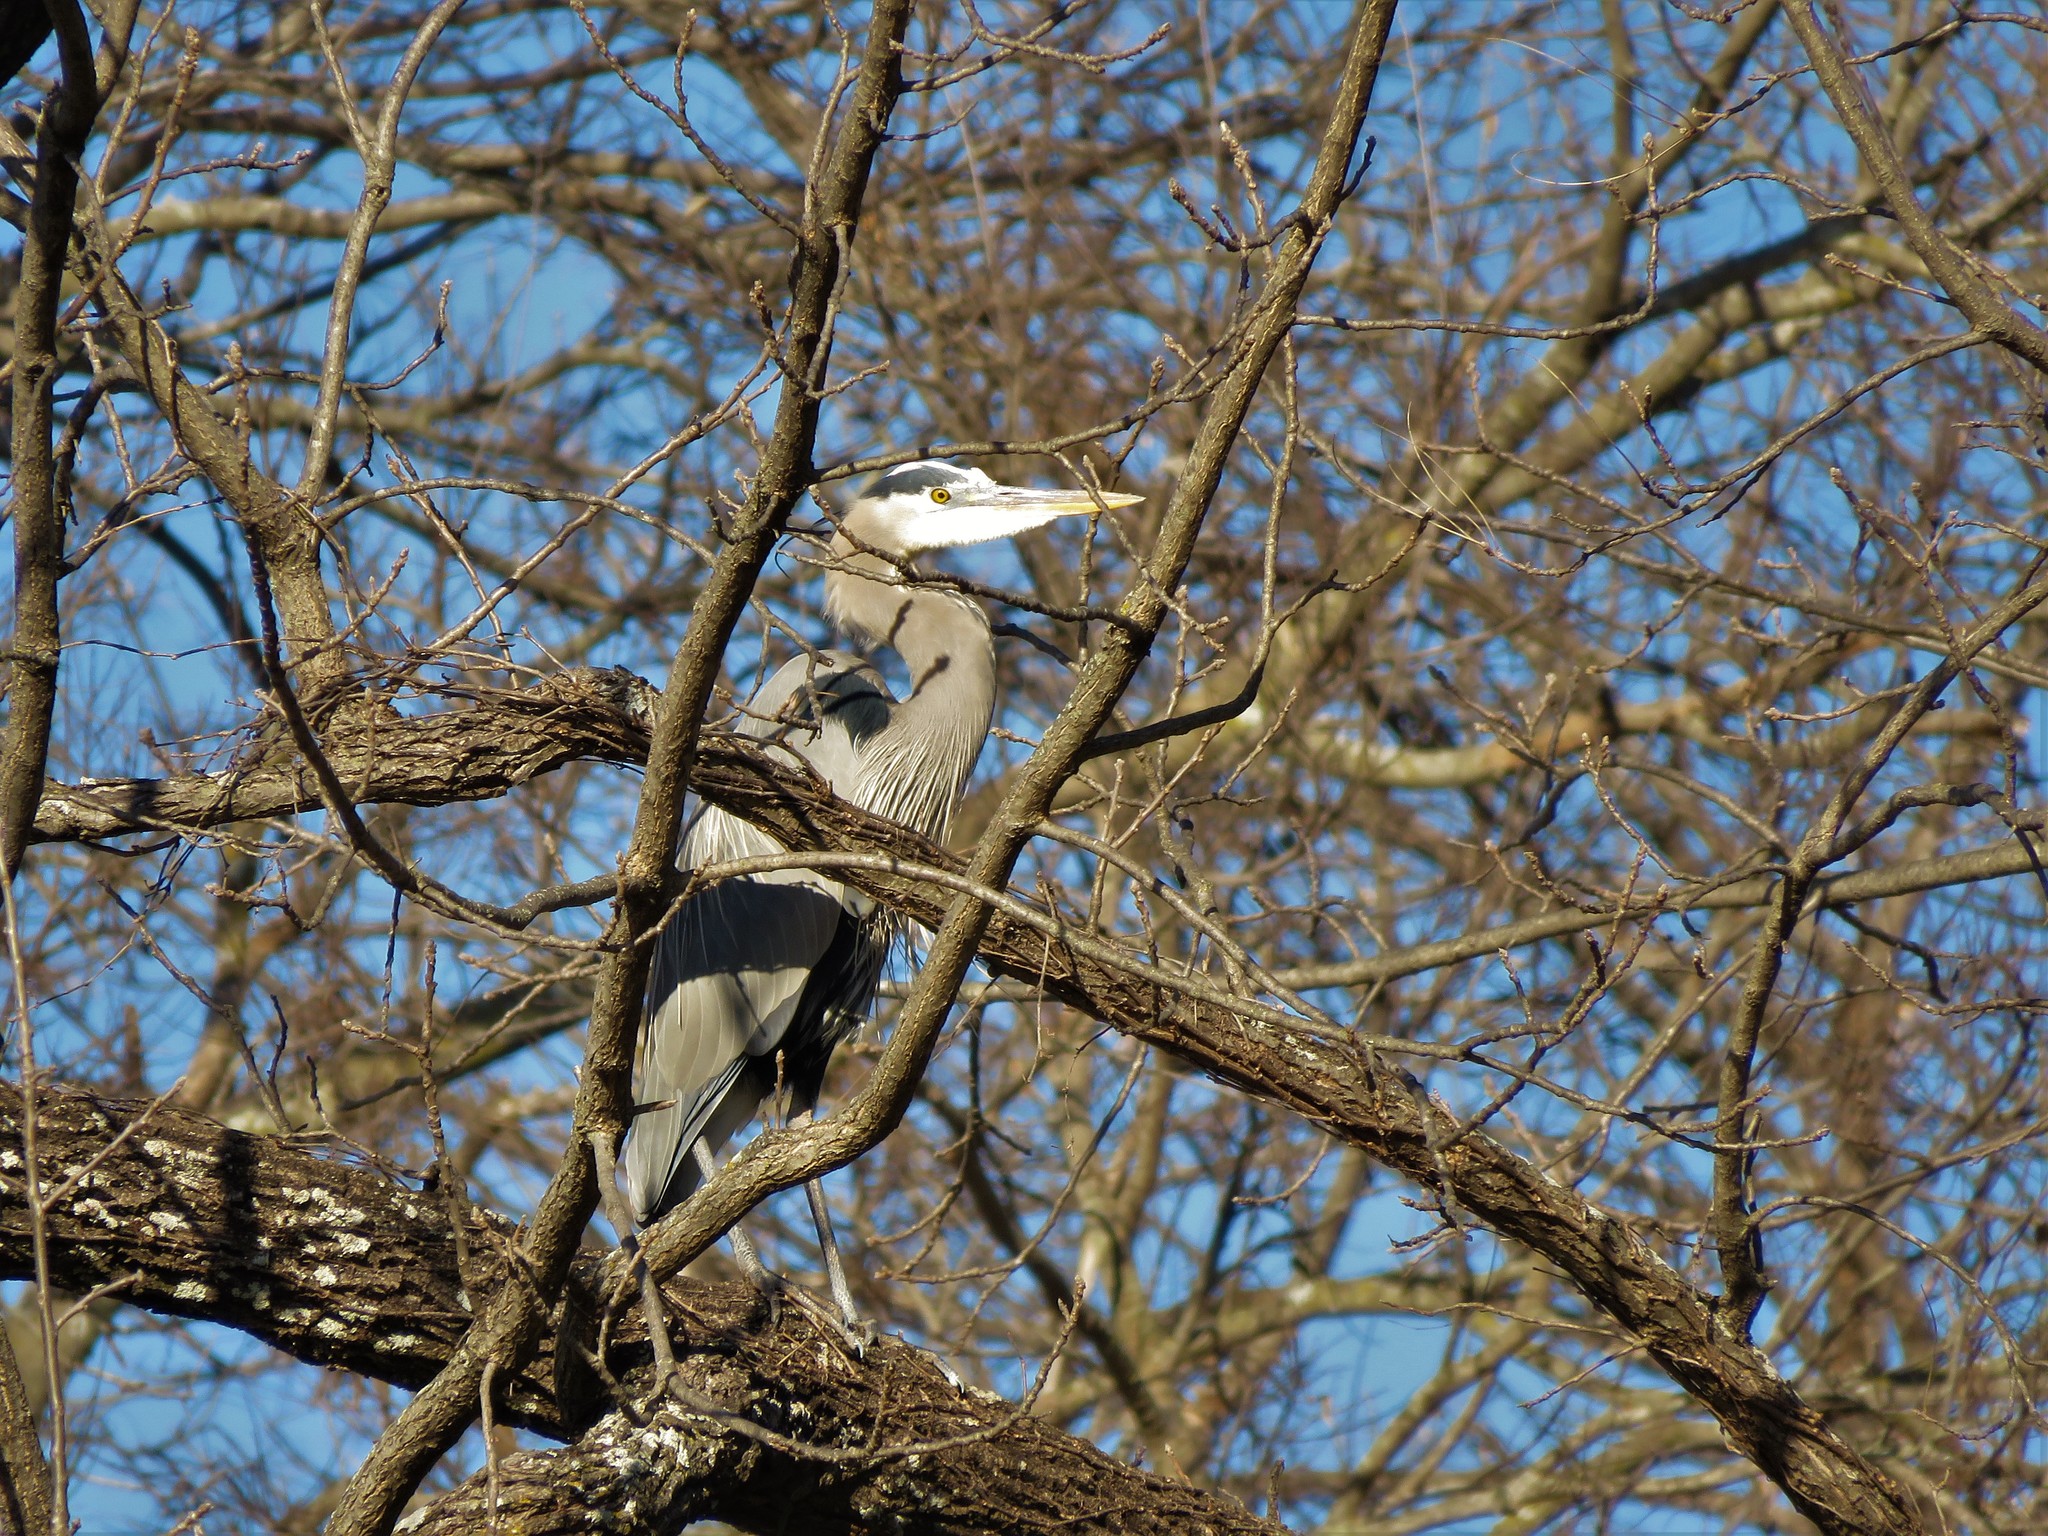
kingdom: Animalia
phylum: Chordata
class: Aves
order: Pelecaniformes
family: Ardeidae
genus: Ardea
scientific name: Ardea herodias
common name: Great blue heron
